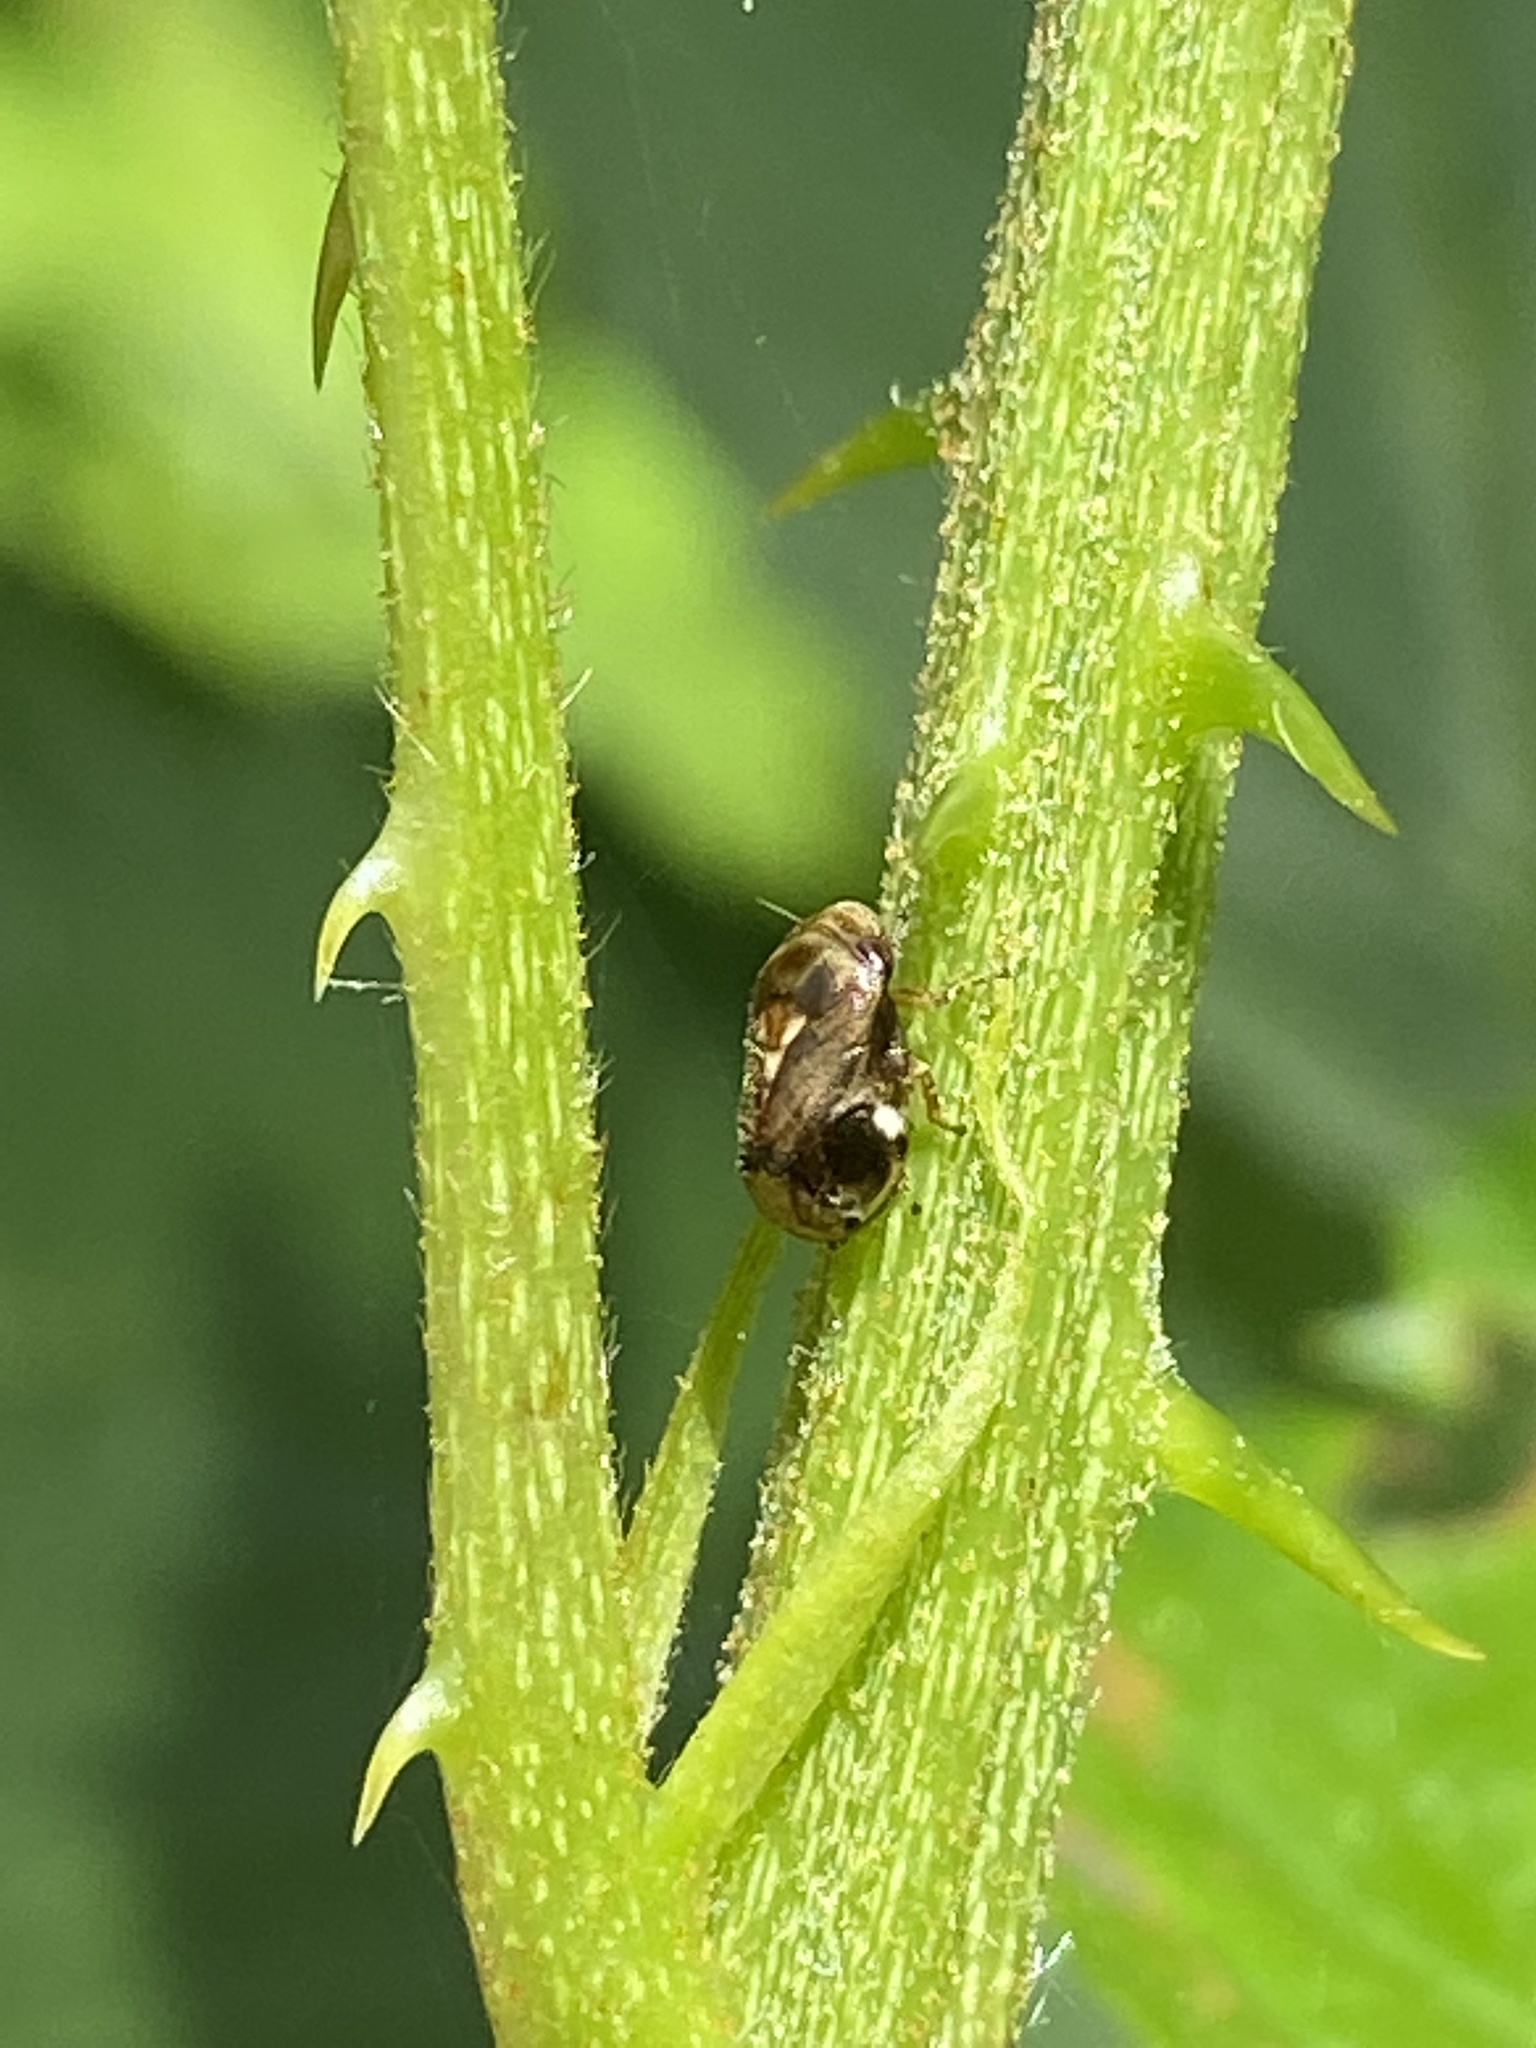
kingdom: Animalia
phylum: Arthropoda
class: Insecta
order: Hemiptera
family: Clastopteridae
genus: Clastoptera
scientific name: Clastoptera xanthocephala
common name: Sunflower spittlebug
